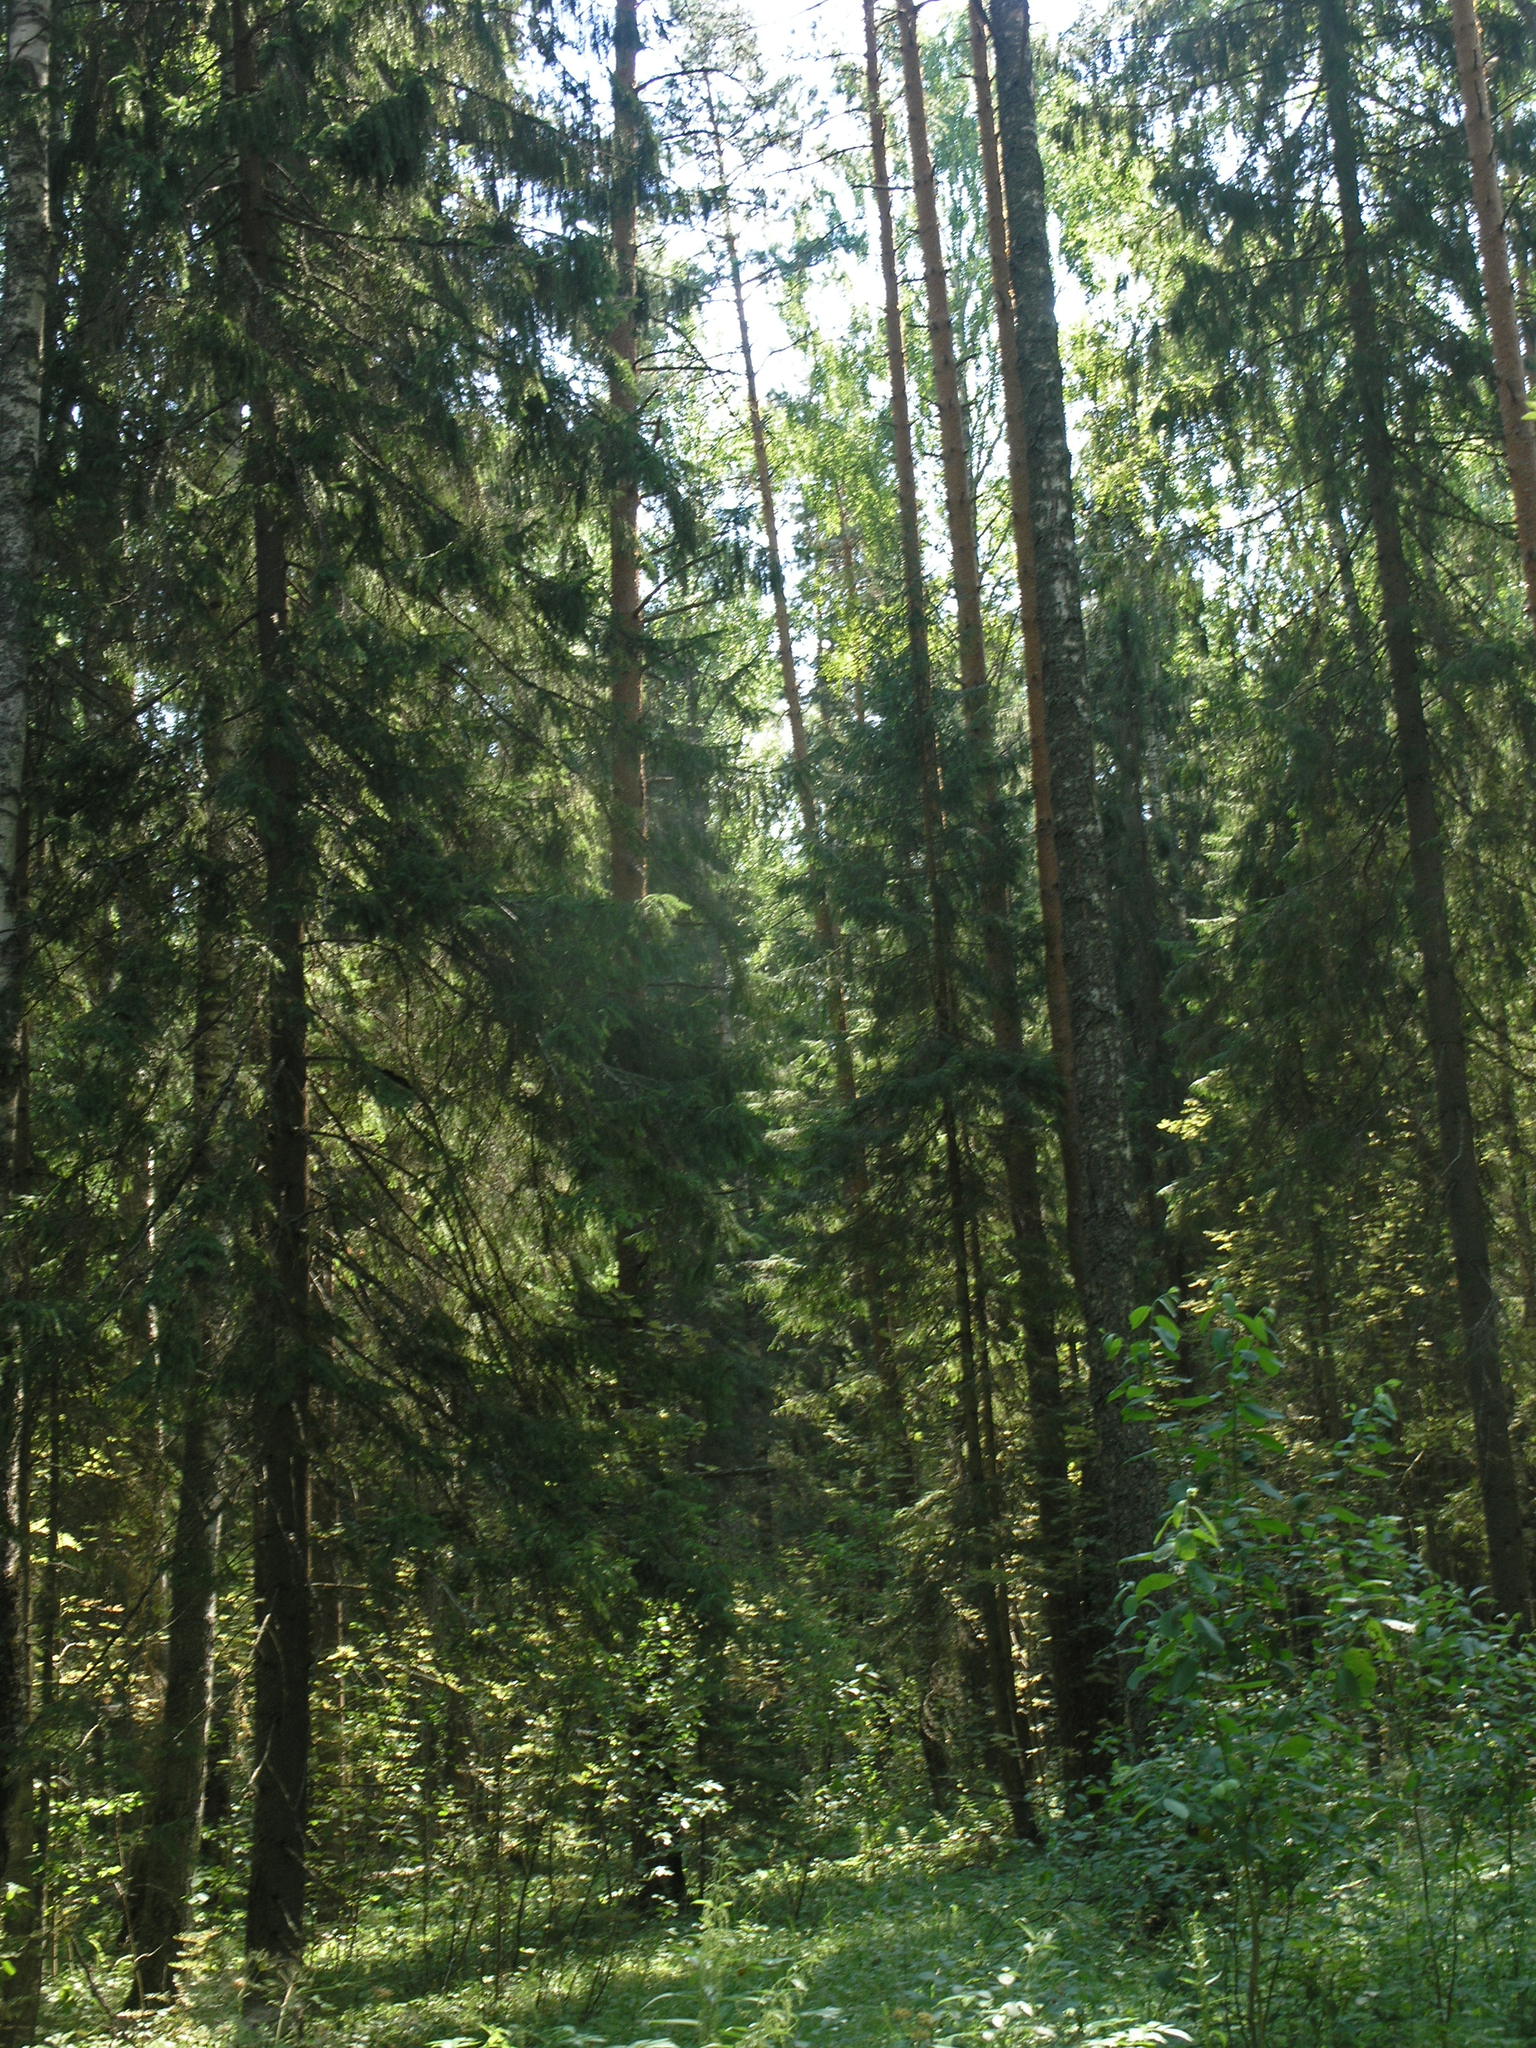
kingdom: Plantae
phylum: Tracheophyta
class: Pinopsida
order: Pinales
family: Pinaceae
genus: Picea
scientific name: Picea
